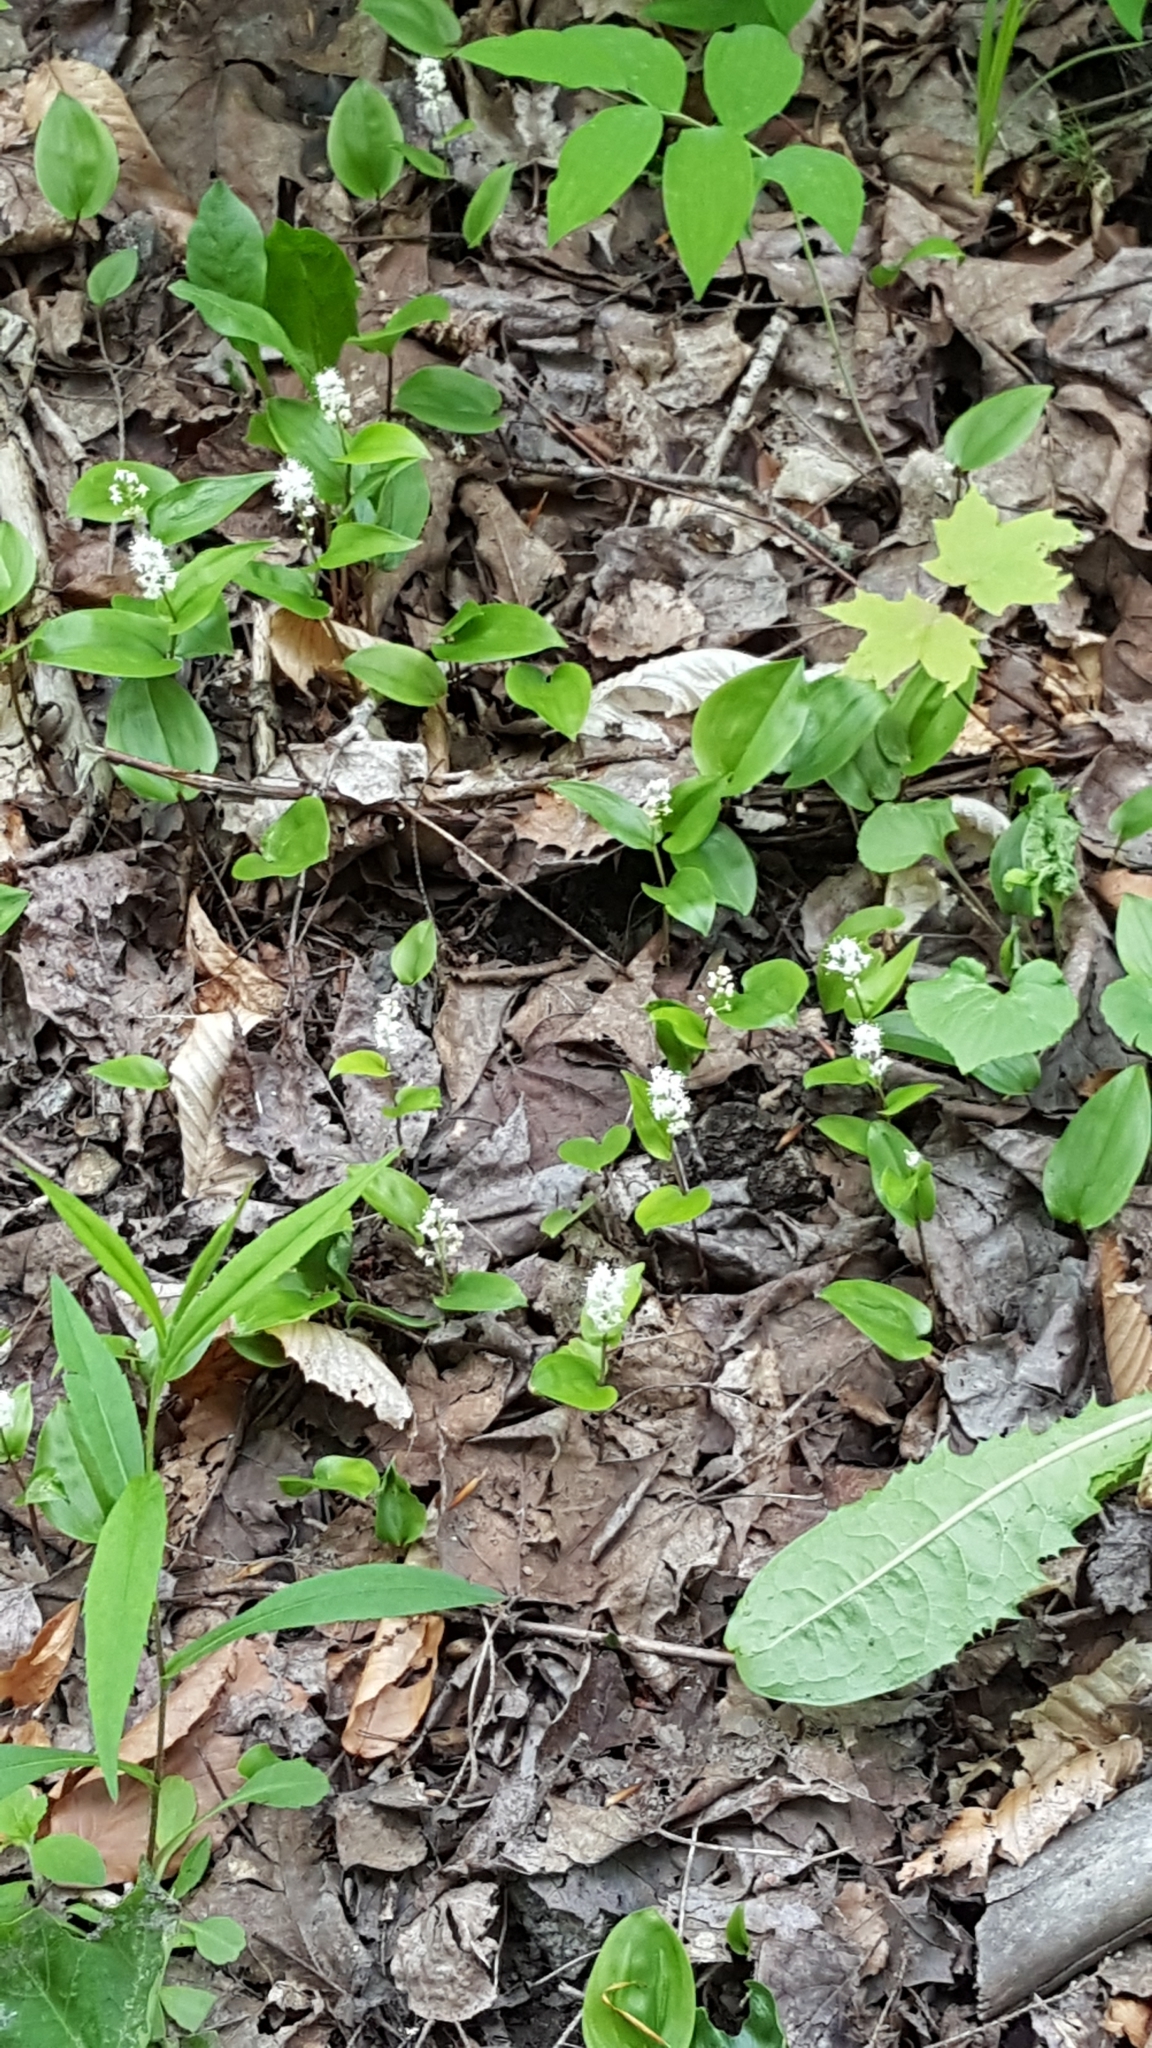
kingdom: Plantae
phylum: Tracheophyta
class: Liliopsida
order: Asparagales
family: Asparagaceae
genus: Maianthemum
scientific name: Maianthemum canadense
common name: False lily-of-the-valley
